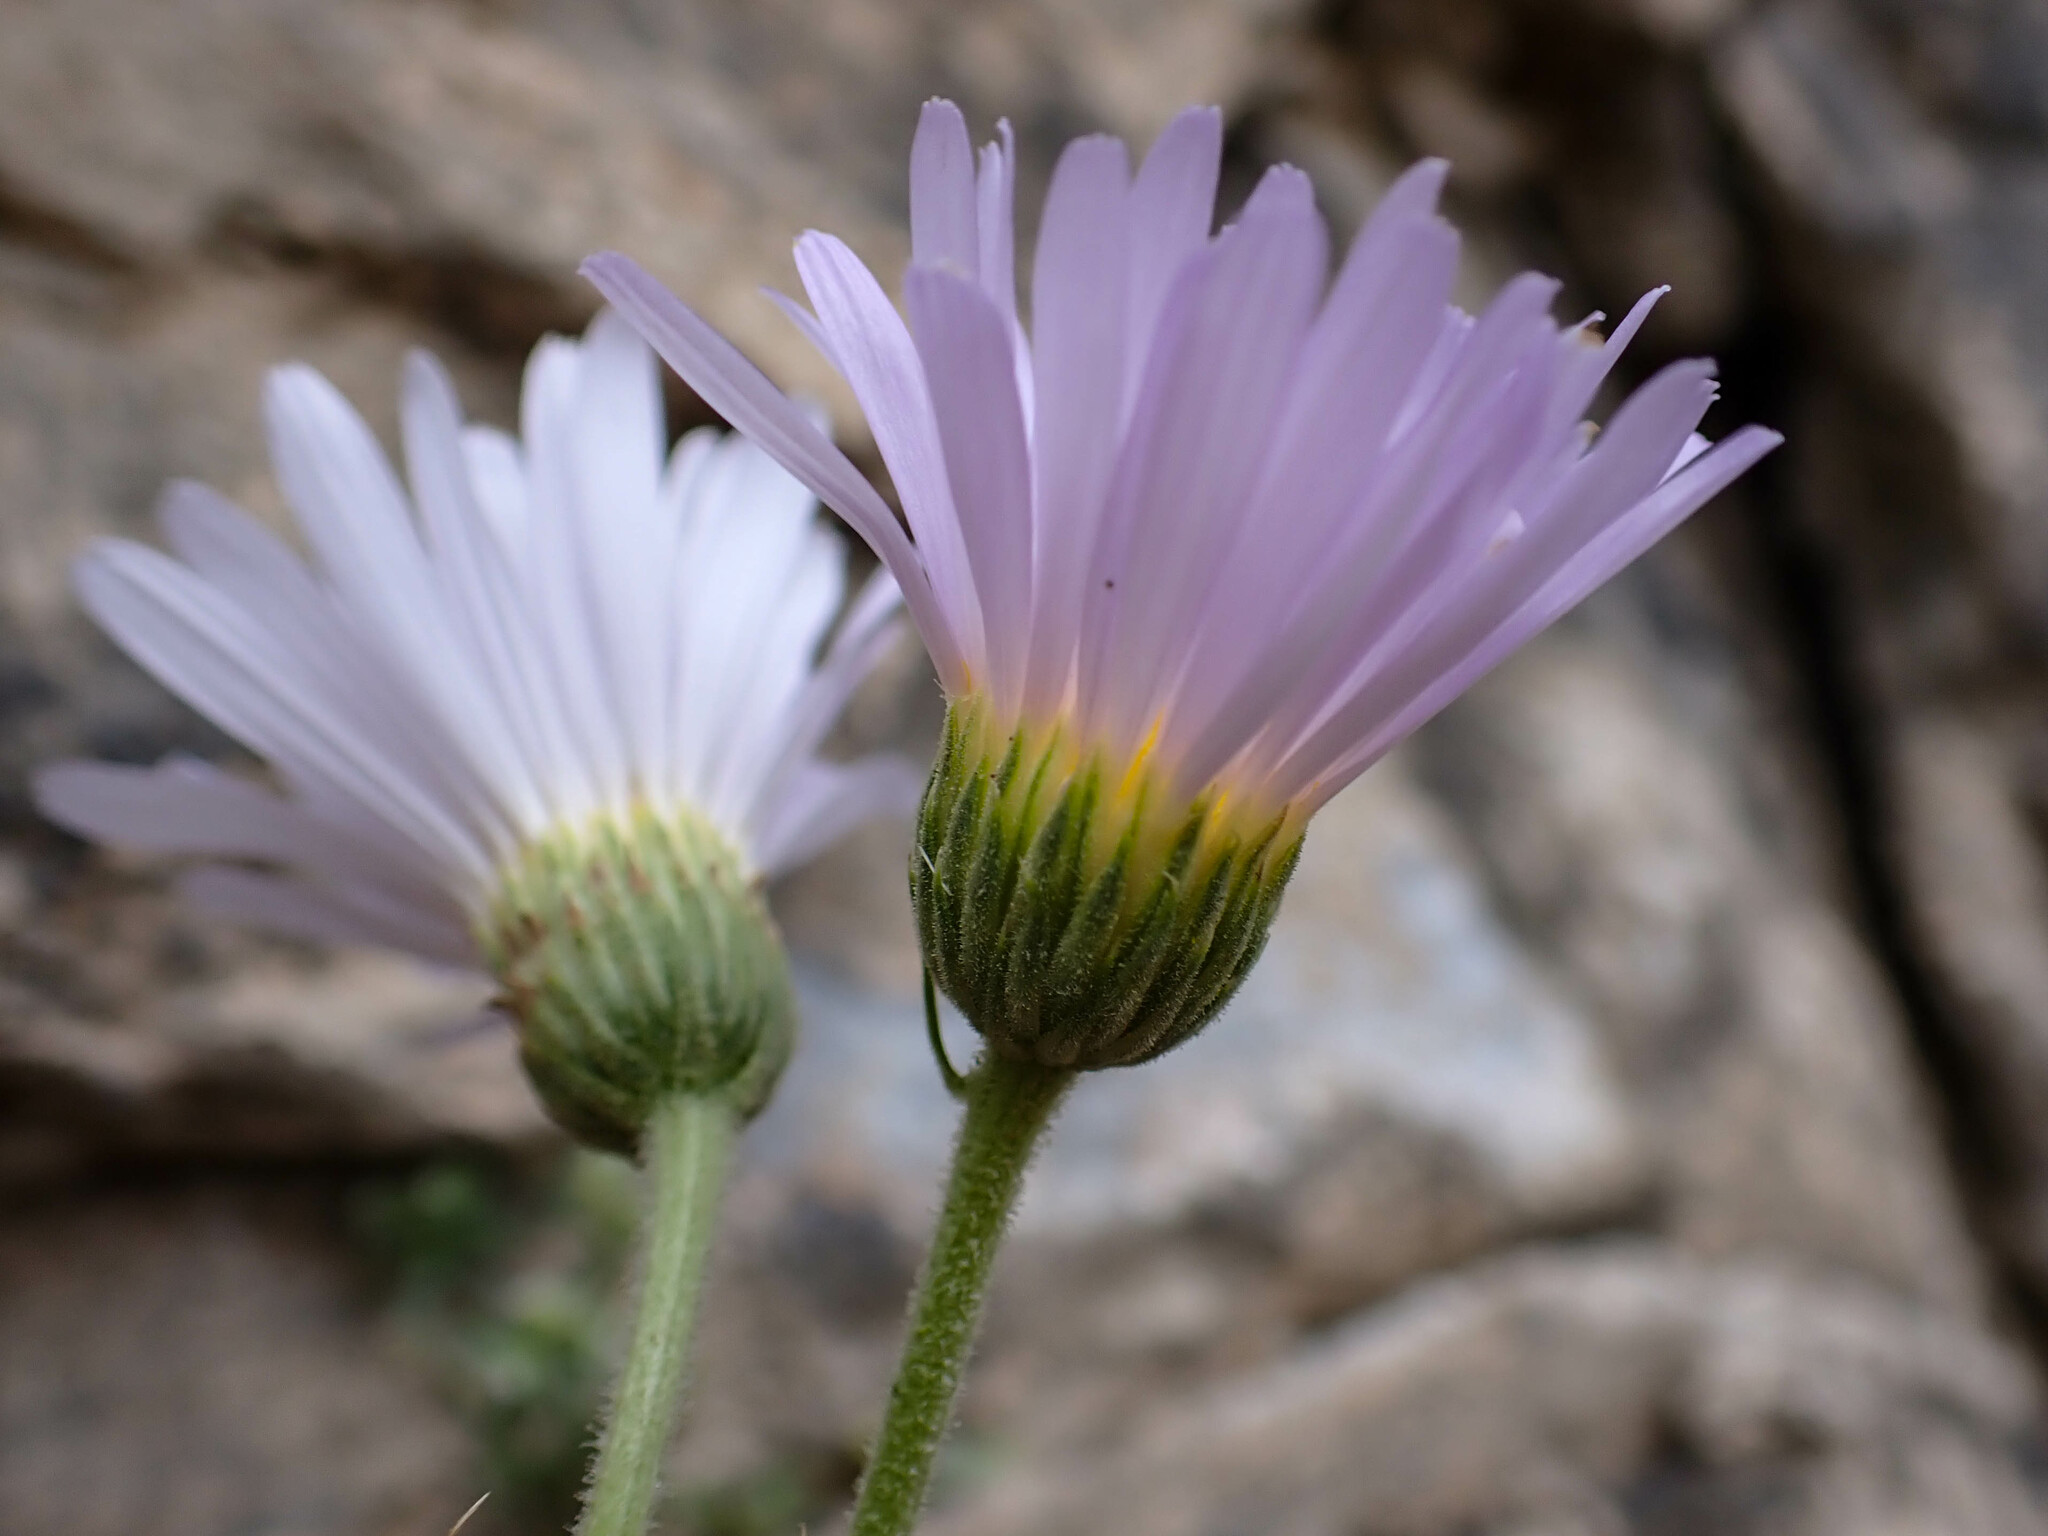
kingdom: Plantae
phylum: Tracheophyta
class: Magnoliopsida
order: Asterales
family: Asteraceae
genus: Xylorhiza
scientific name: Xylorhiza tortifolia
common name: Hurt-leaf woody-aster
